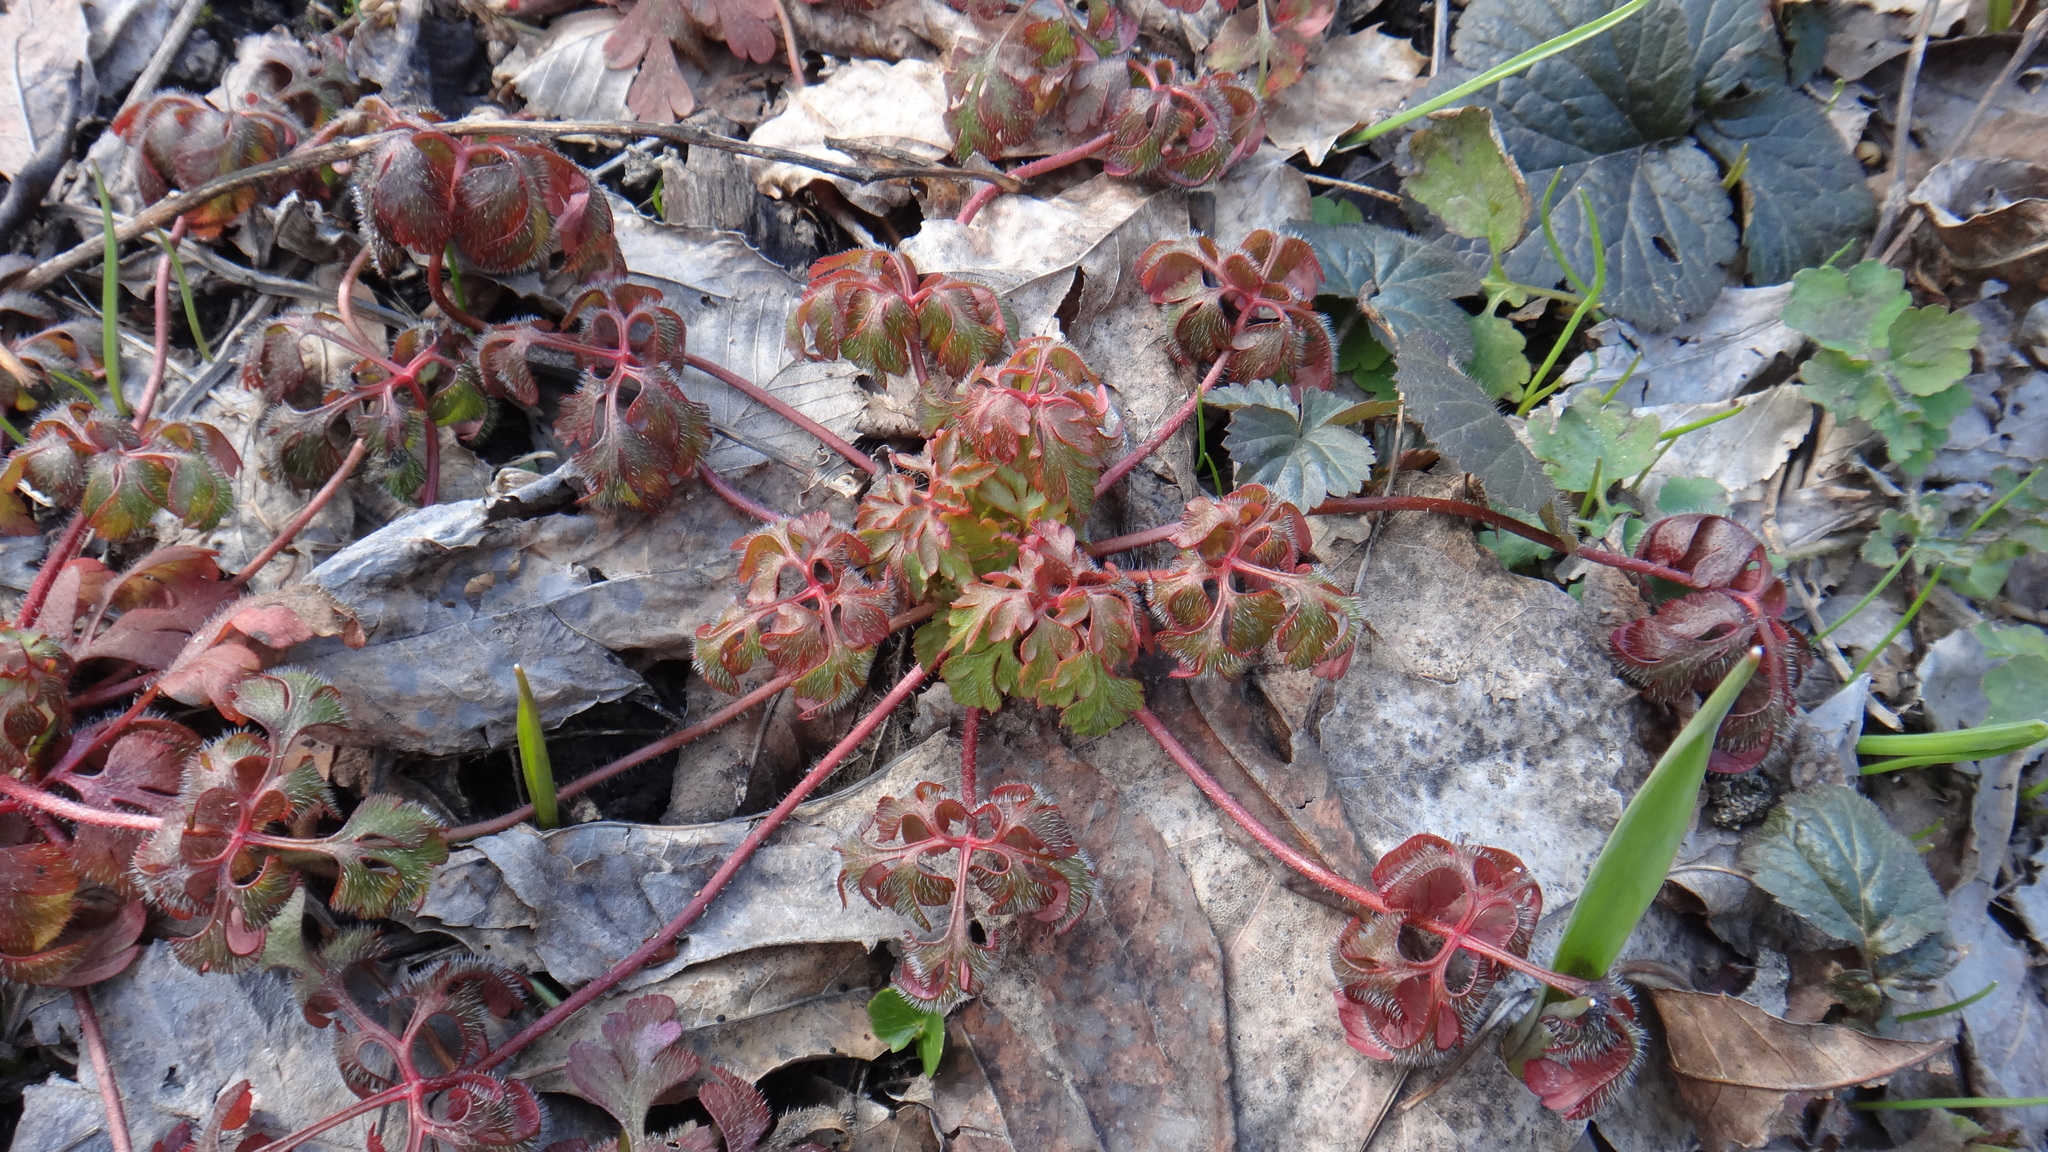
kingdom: Plantae
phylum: Tracheophyta
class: Magnoliopsida
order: Geraniales
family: Geraniaceae
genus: Geranium
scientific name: Geranium robertianum
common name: Herb-robert
